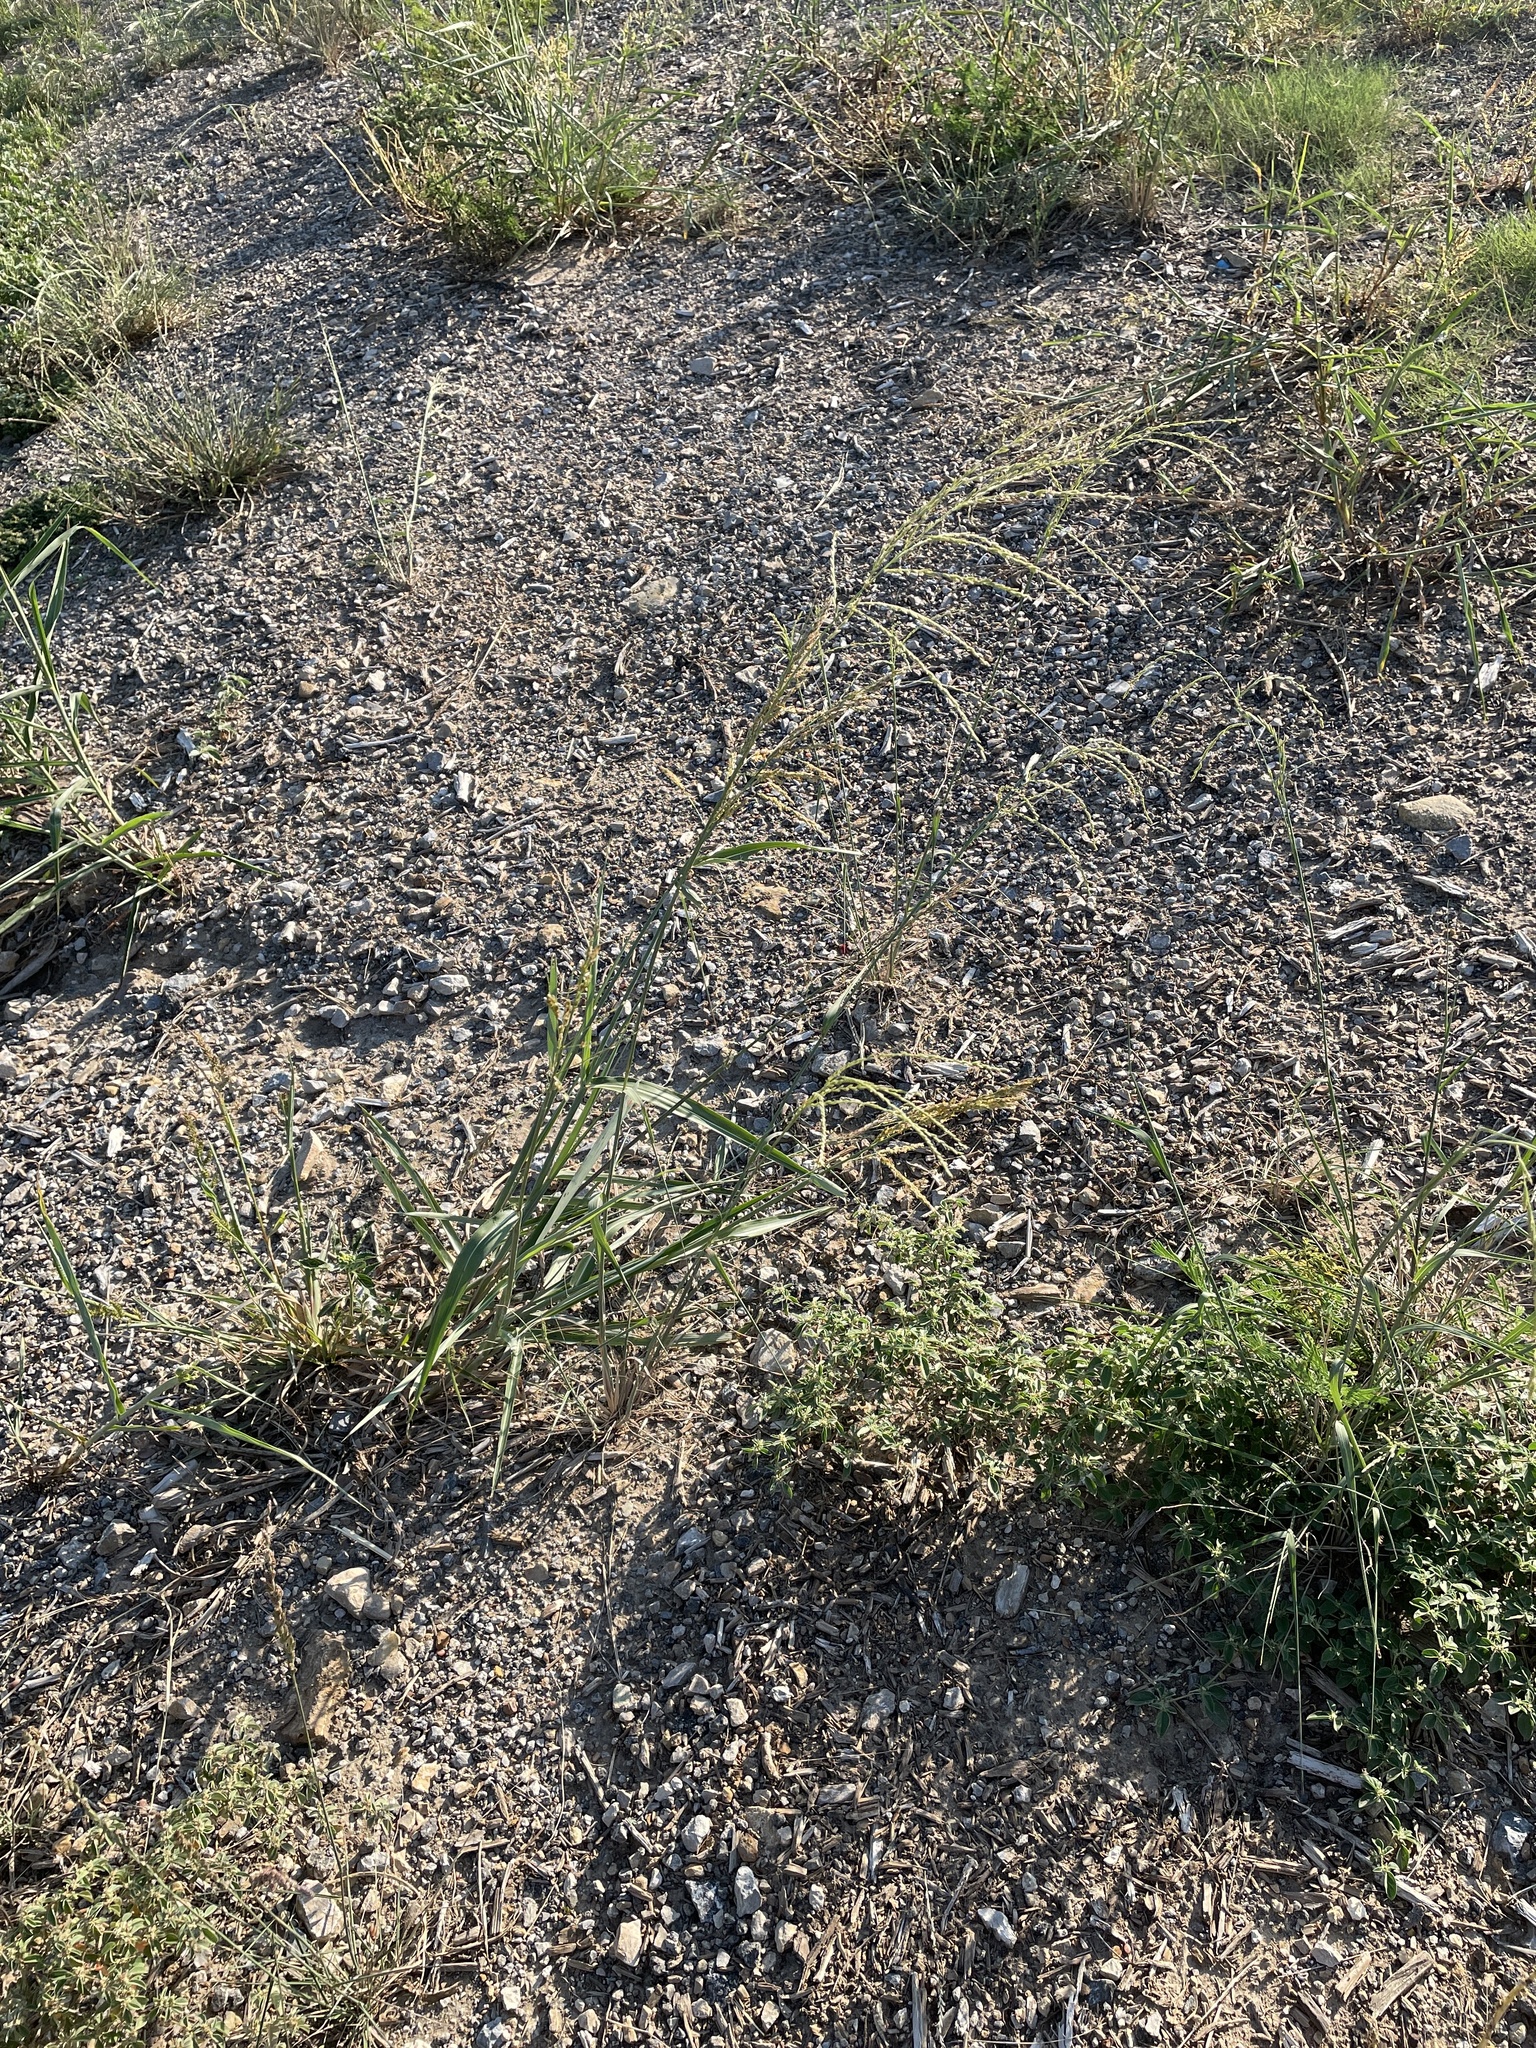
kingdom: Plantae
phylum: Tracheophyta
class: Liliopsida
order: Poales
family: Poaceae
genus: Disakisperma
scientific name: Disakisperma dubium
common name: Green sprangletop
